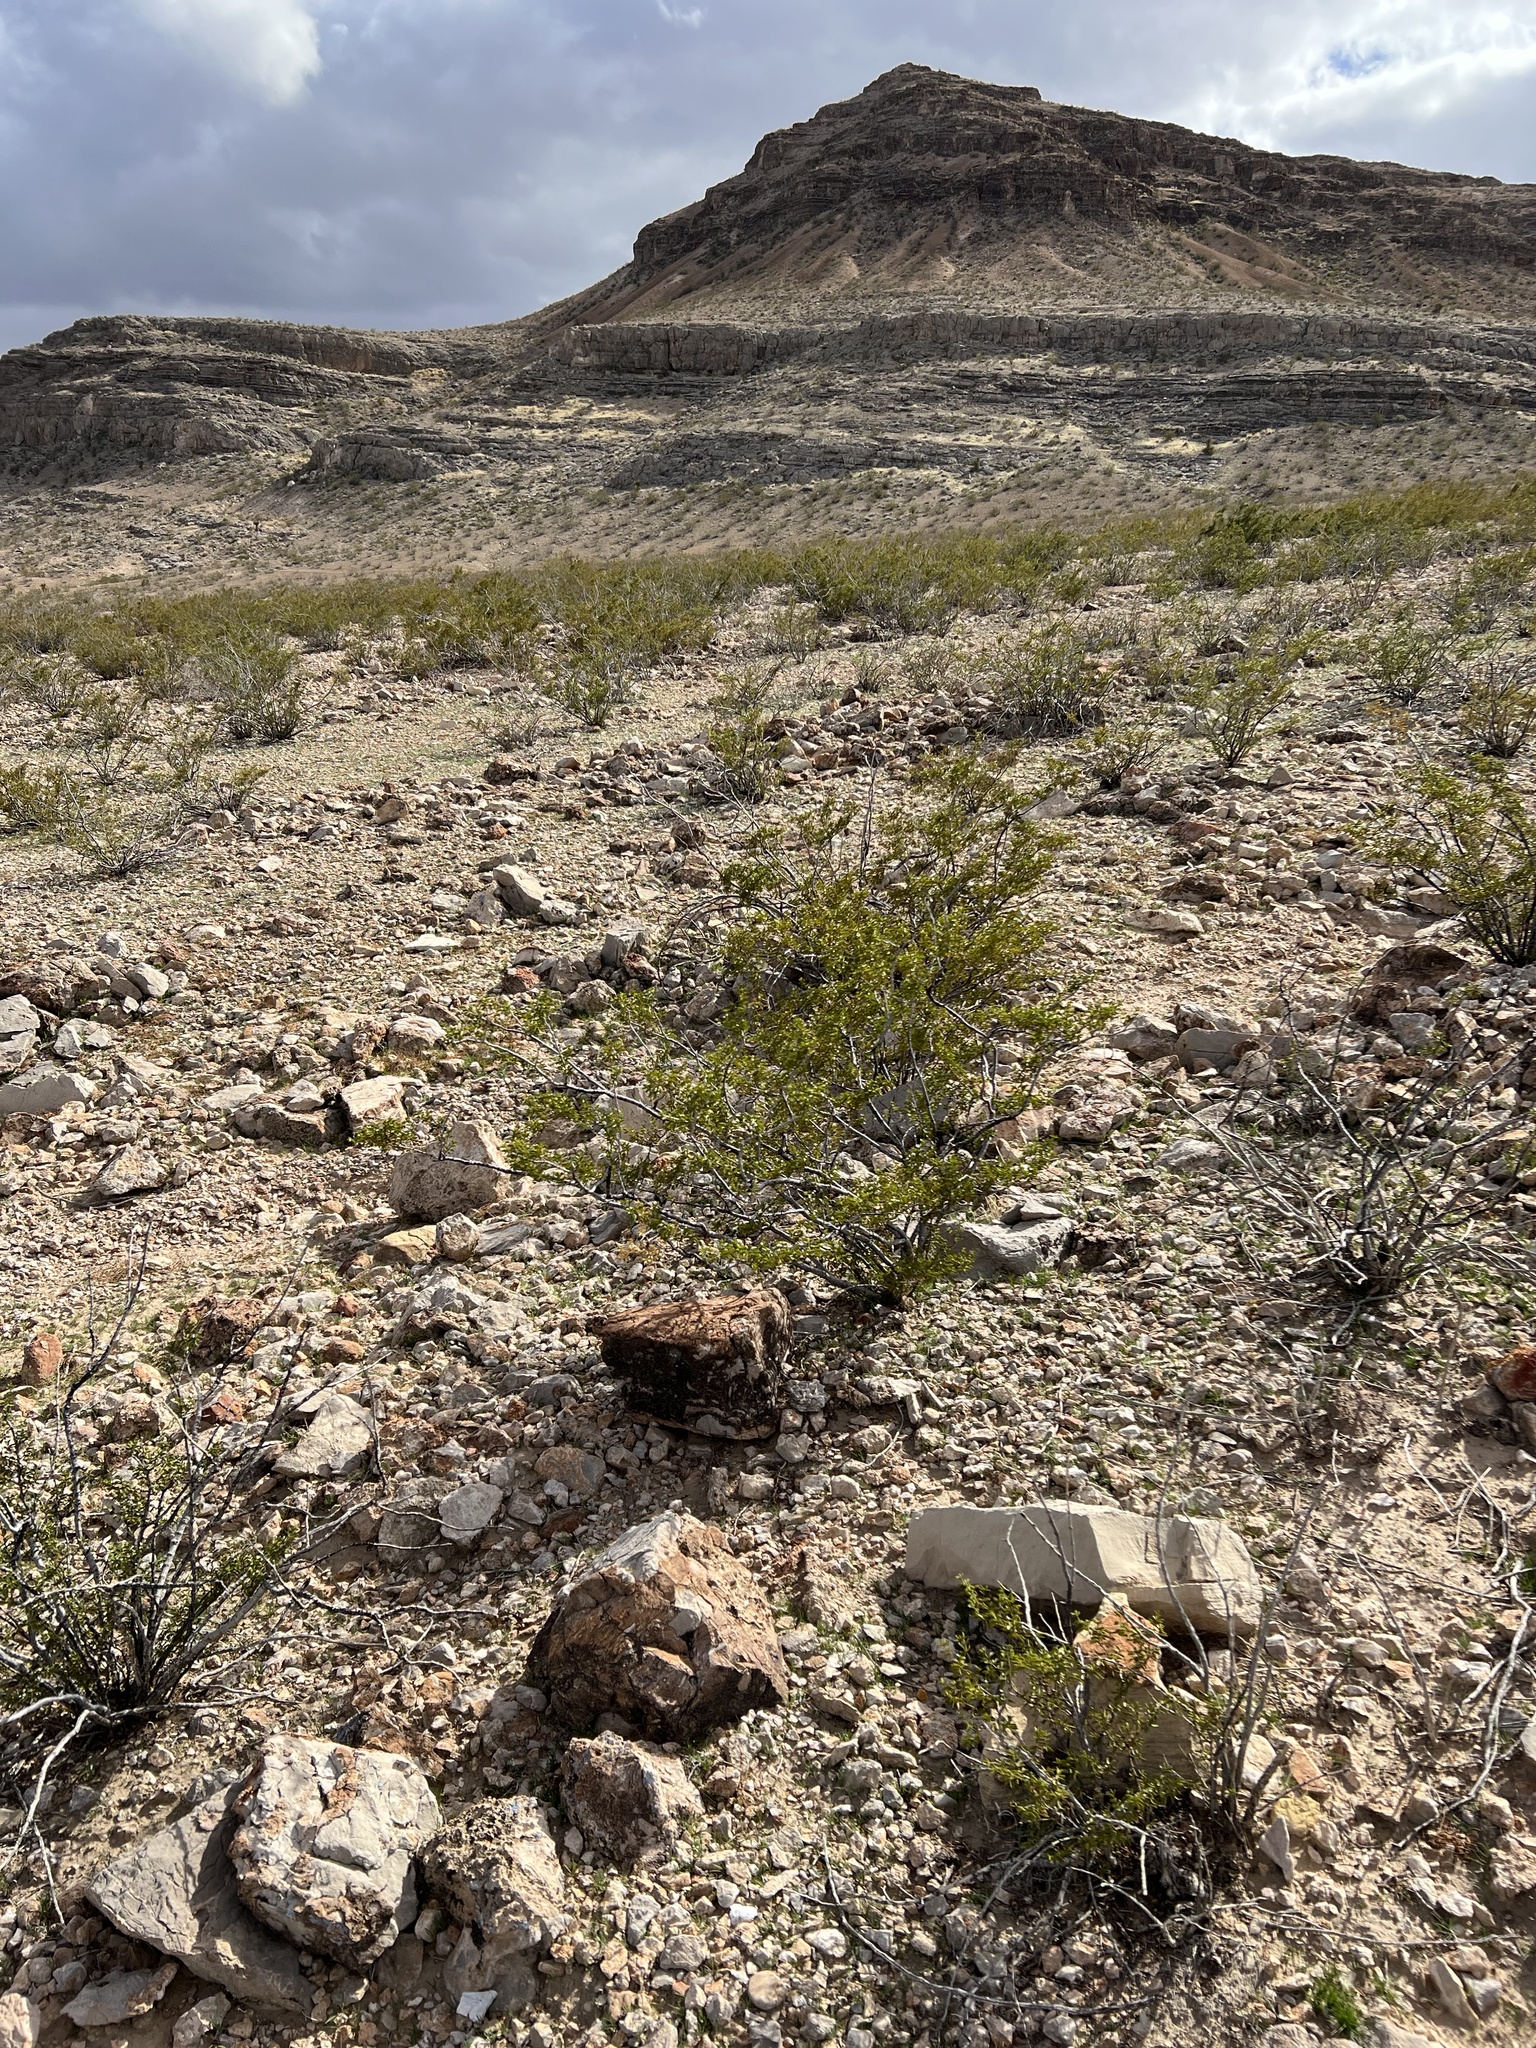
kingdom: Plantae
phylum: Tracheophyta
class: Magnoliopsida
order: Zygophyllales
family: Zygophyllaceae
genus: Larrea
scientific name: Larrea tridentata
